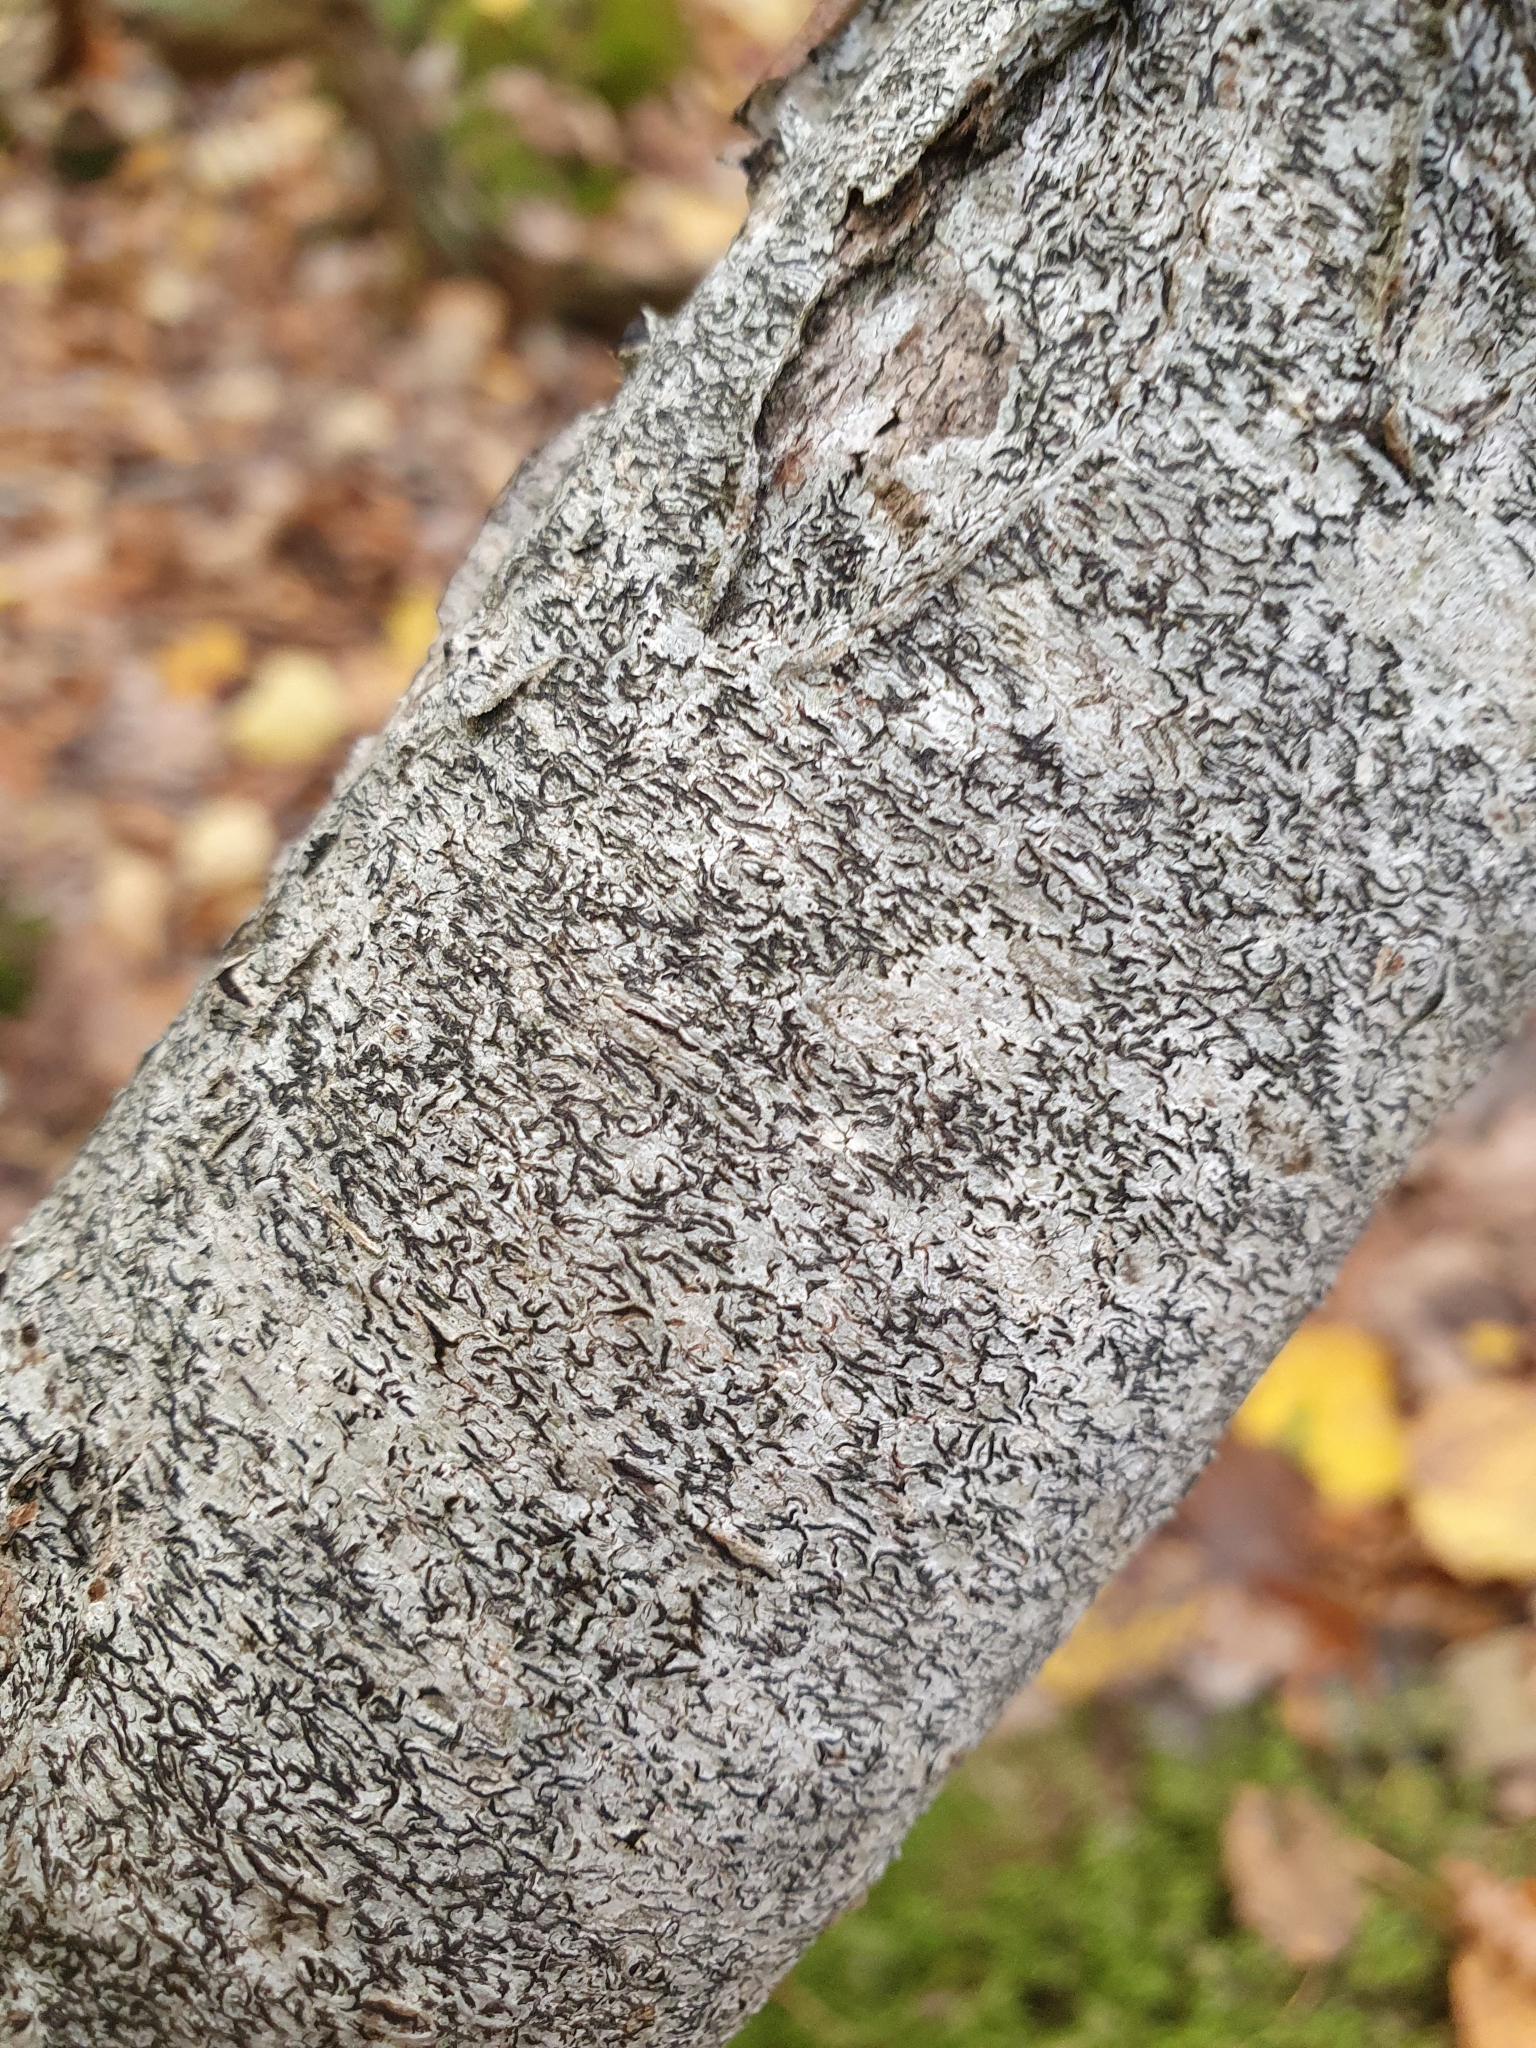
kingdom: Fungi
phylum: Ascomycota
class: Lecanoromycetes
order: Ostropales
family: Graphidaceae
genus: Graphis
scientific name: Graphis scripta
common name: Script lichen
